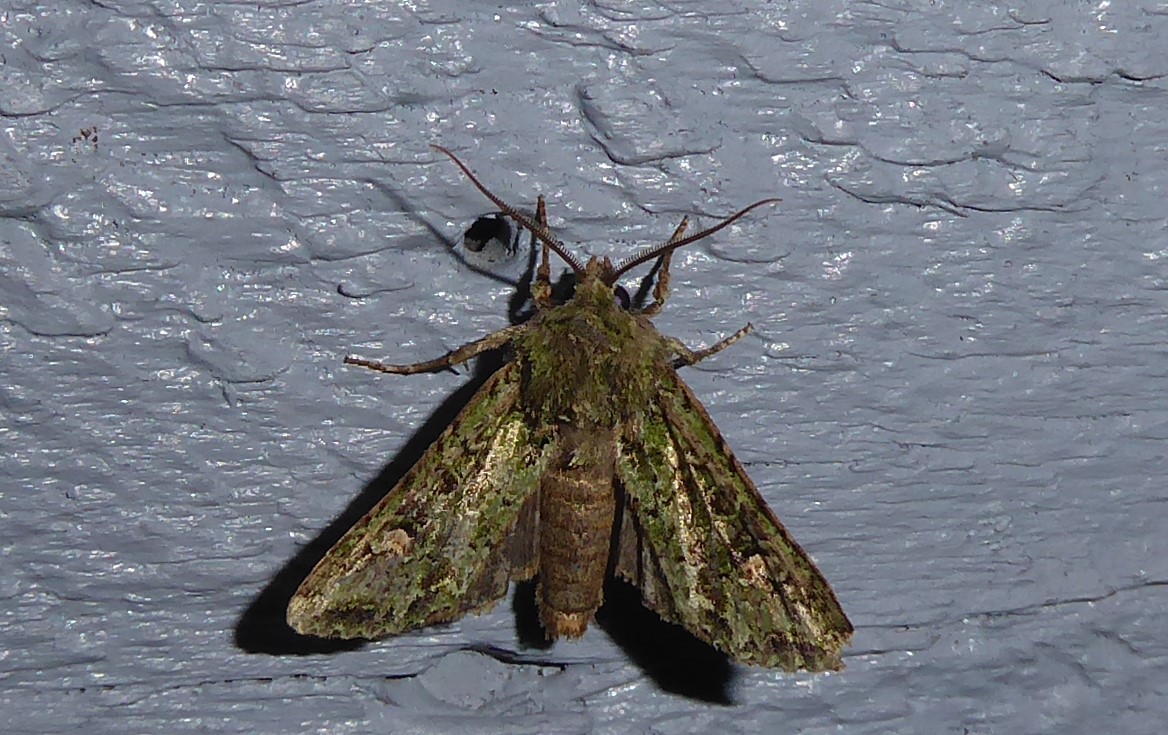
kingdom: Animalia
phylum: Arthropoda
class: Insecta
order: Lepidoptera
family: Noctuidae
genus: Ichneutica
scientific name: Ichneutica
